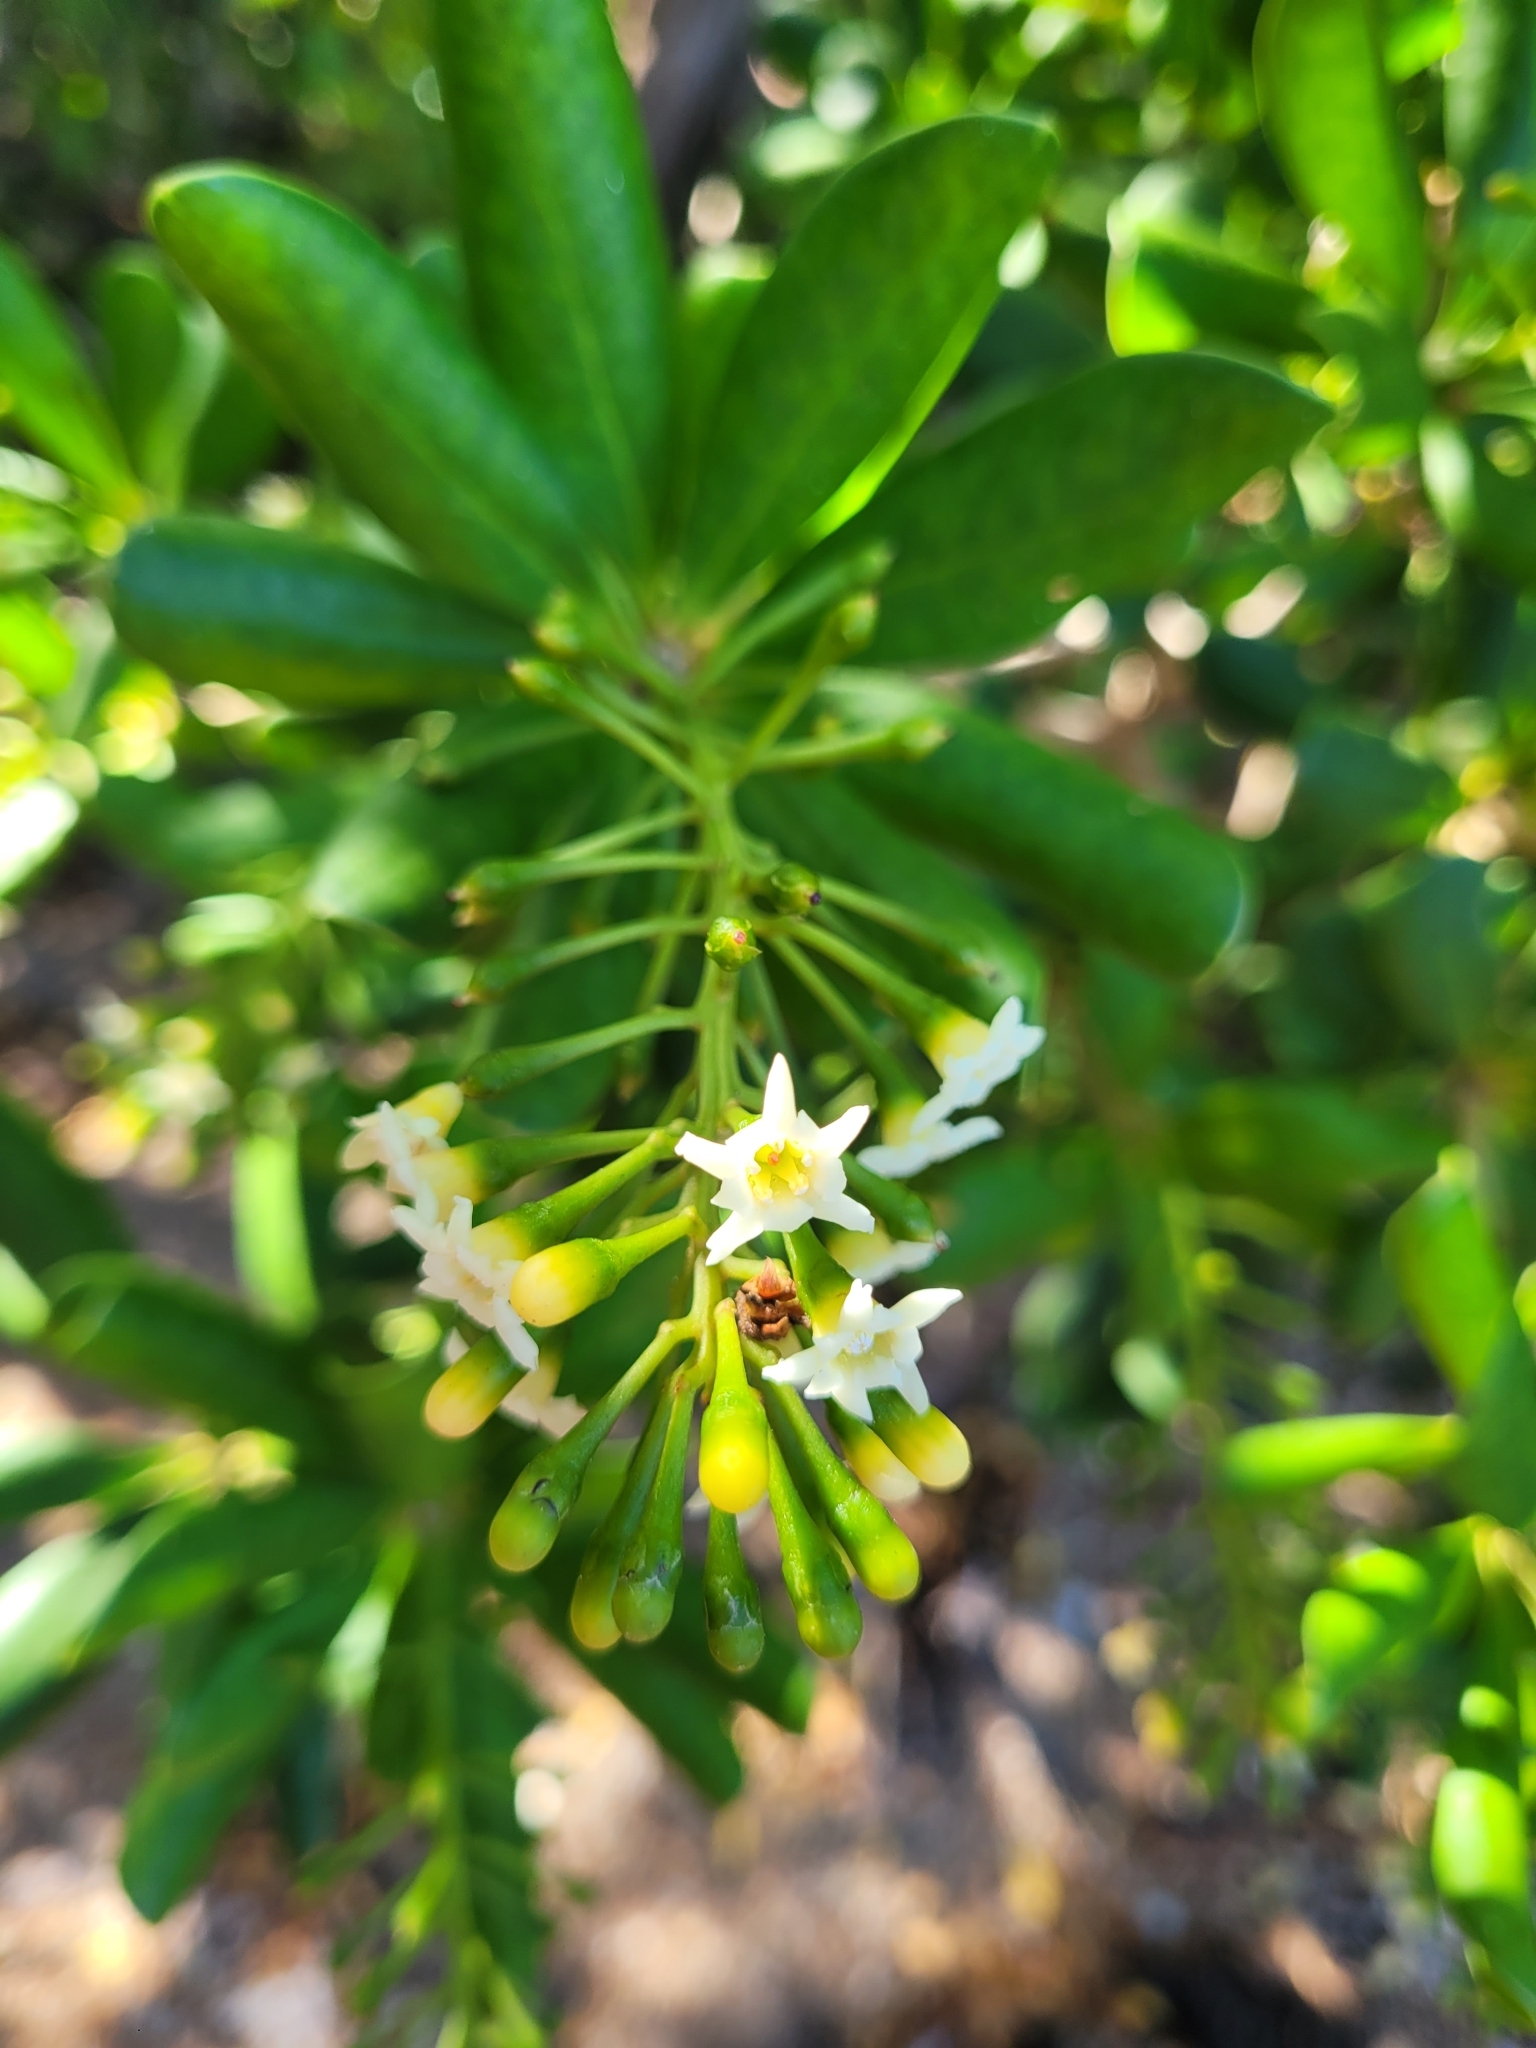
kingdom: Plantae
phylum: Tracheophyta
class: Magnoliopsida
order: Ericales
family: Primulaceae
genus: Jacquinia
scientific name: Jacquinia arborea
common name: Barceletwood
